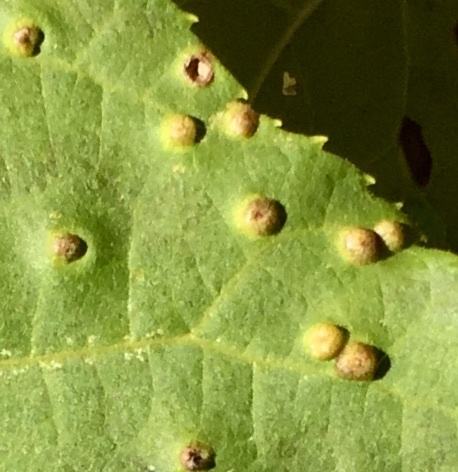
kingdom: Animalia
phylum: Arthropoda
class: Insecta
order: Hemiptera
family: Phylloxeridae
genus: Phylloxera
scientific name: Phylloxera caryae-semen
